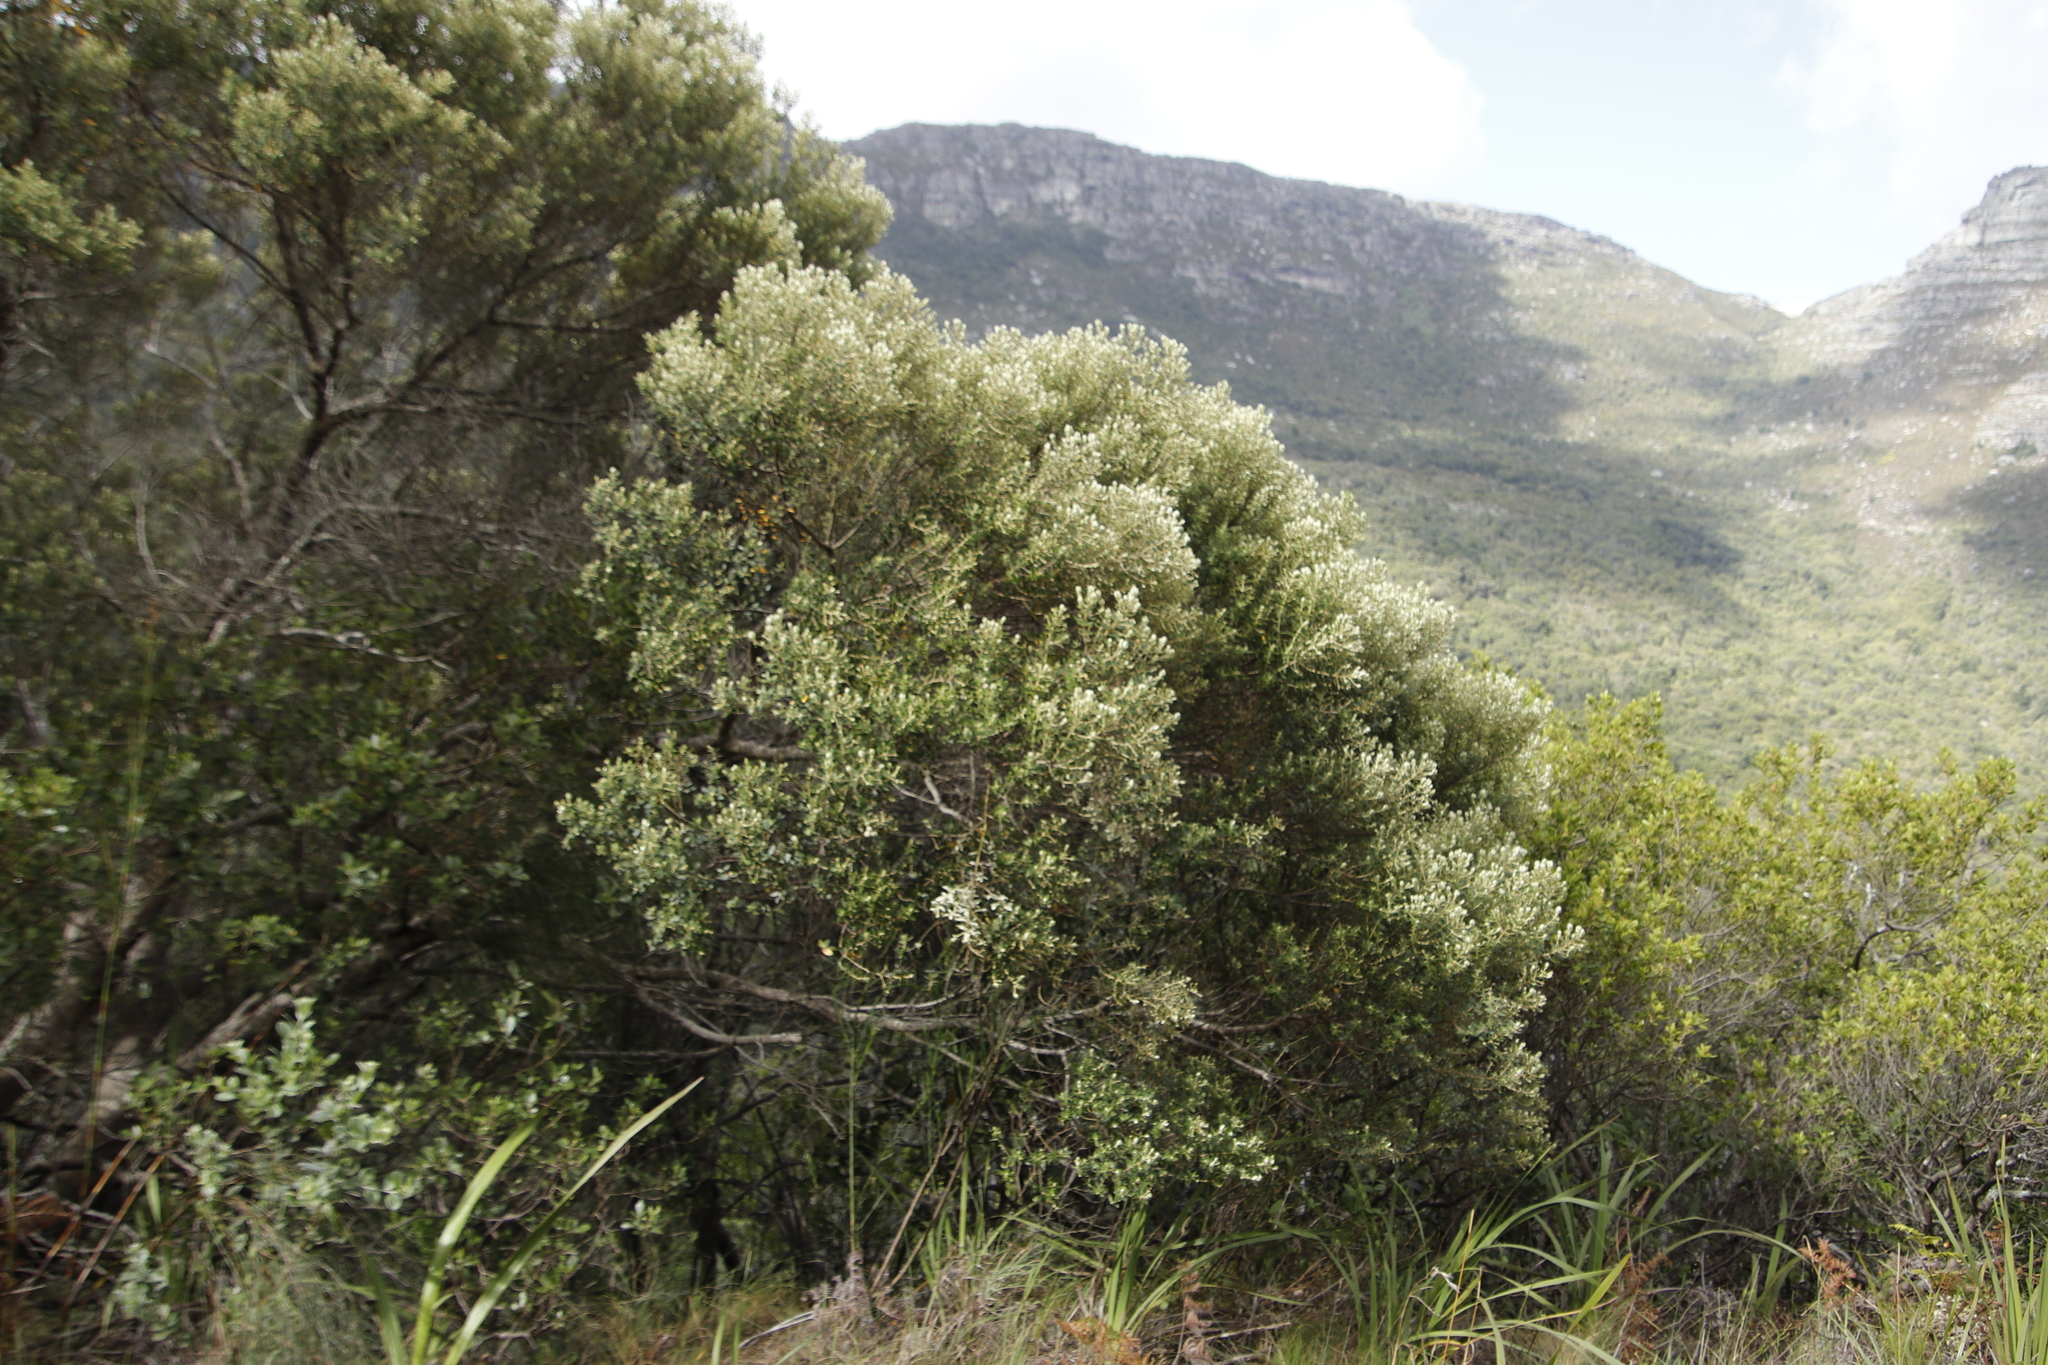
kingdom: Plantae
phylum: Tracheophyta
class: Magnoliopsida
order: Rosales
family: Rhamnaceae
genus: Phylica
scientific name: Phylica buxifolia
